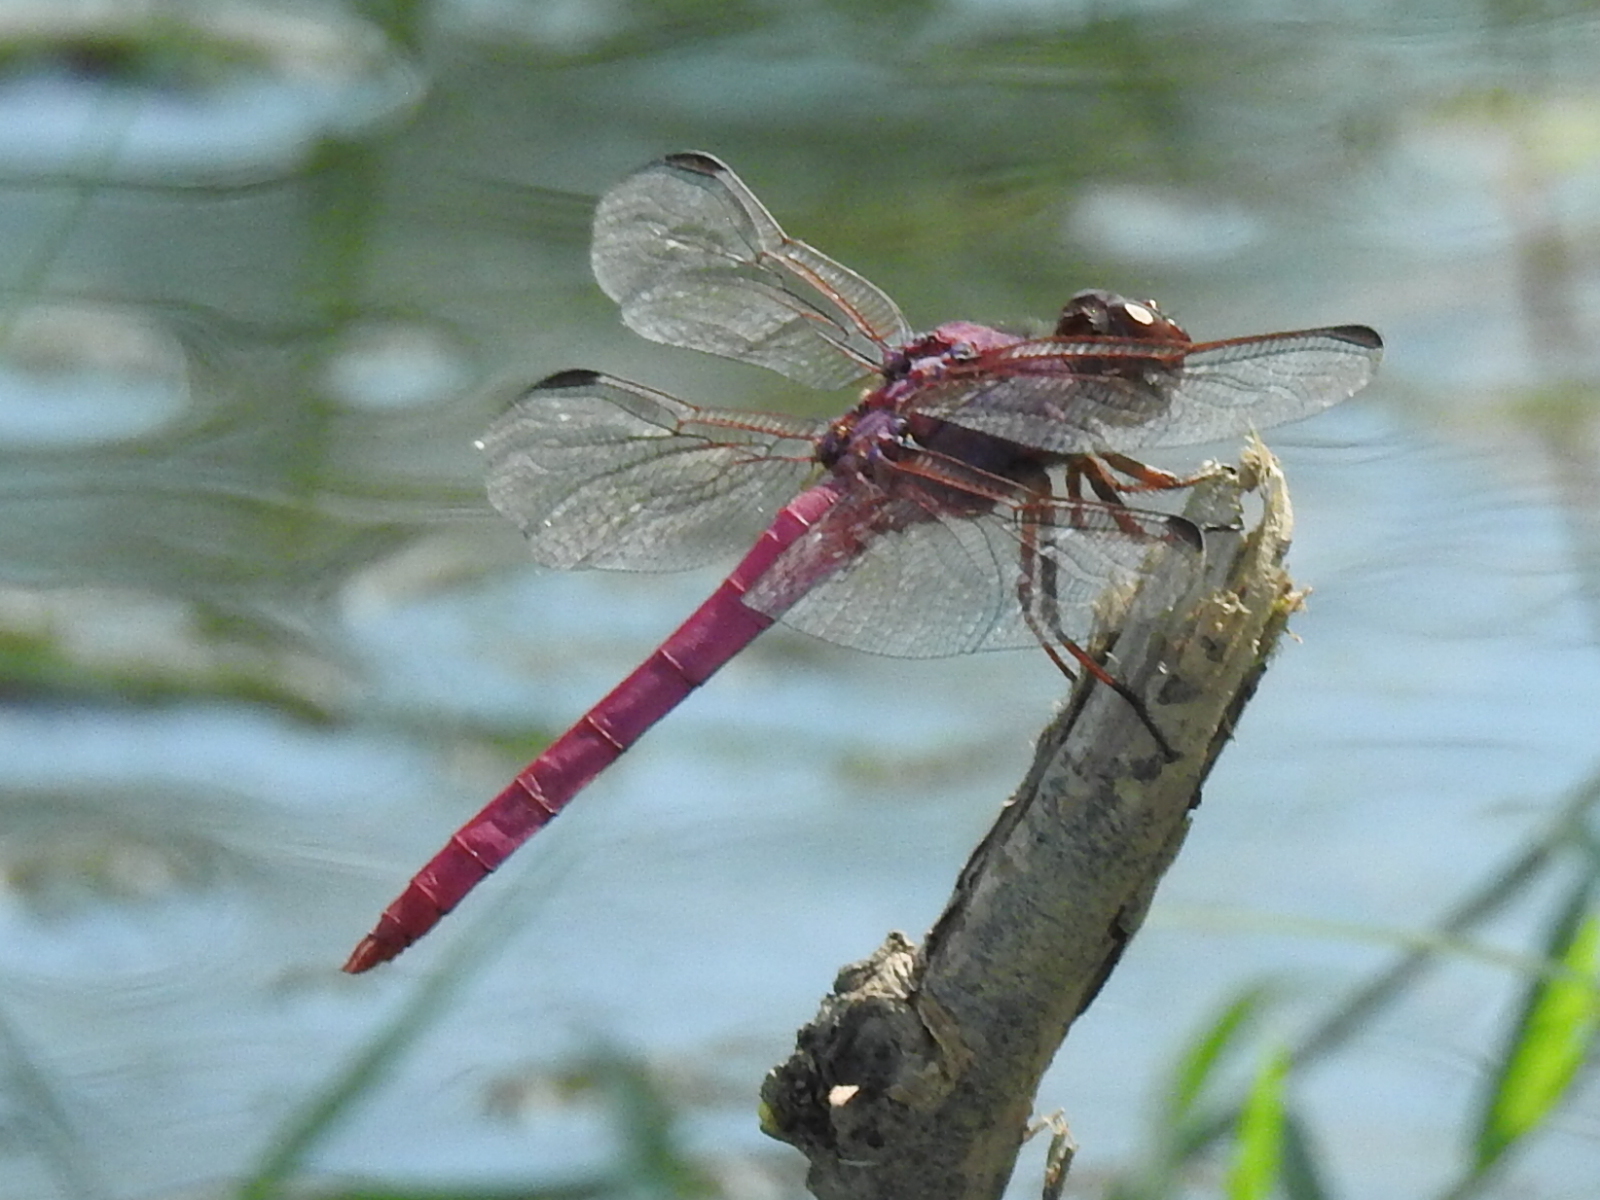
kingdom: Animalia
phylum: Arthropoda
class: Insecta
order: Odonata
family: Libellulidae
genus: Orthemis
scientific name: Orthemis ferruginea
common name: Roseate skimmer
